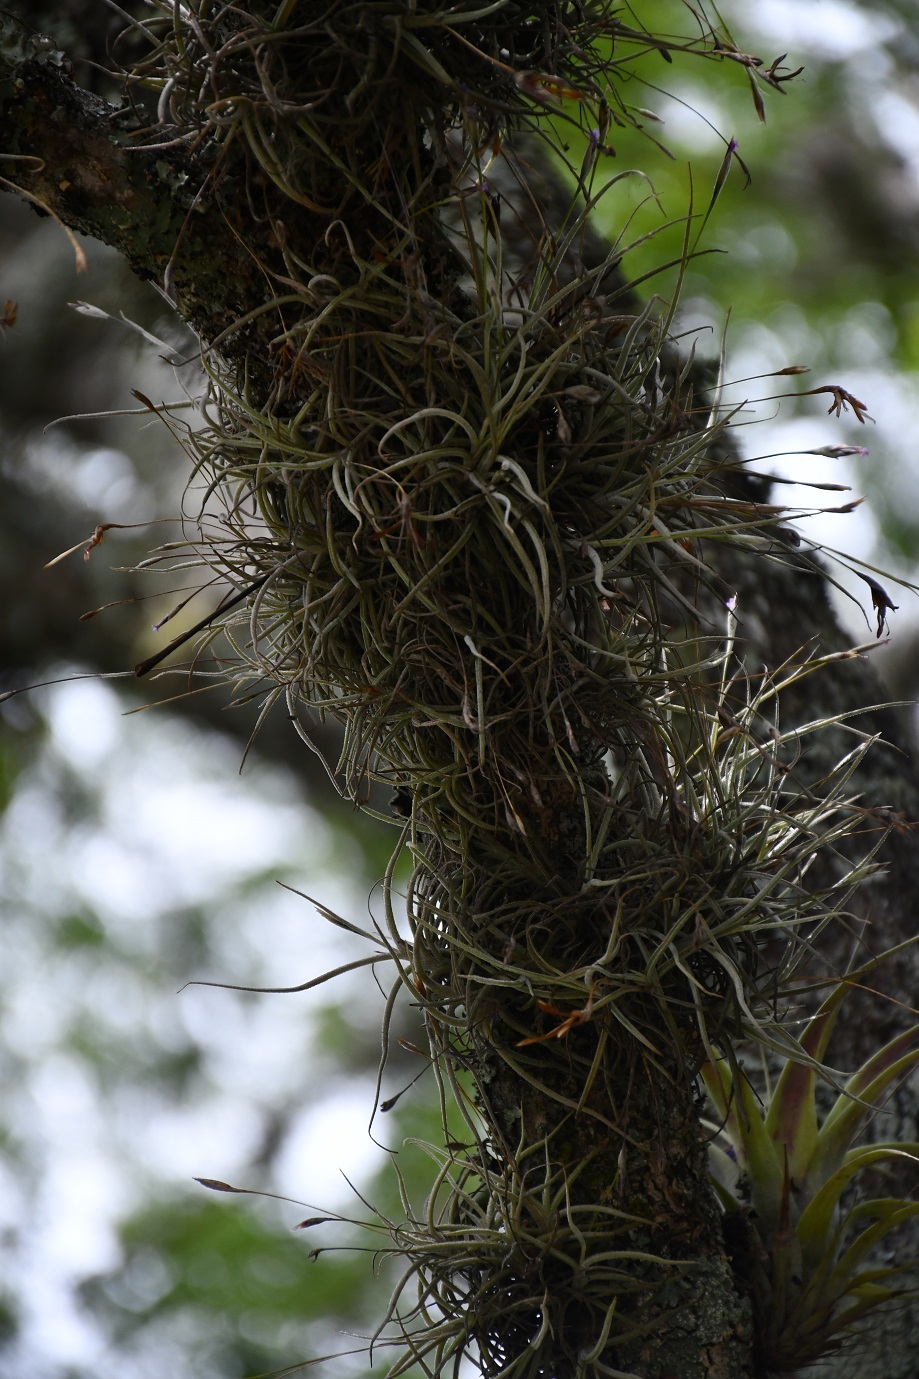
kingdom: Plantae
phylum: Tracheophyta
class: Liliopsida
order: Poales
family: Bromeliaceae
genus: Tillandsia
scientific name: Tillandsia recurvata
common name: Small ballmoss
